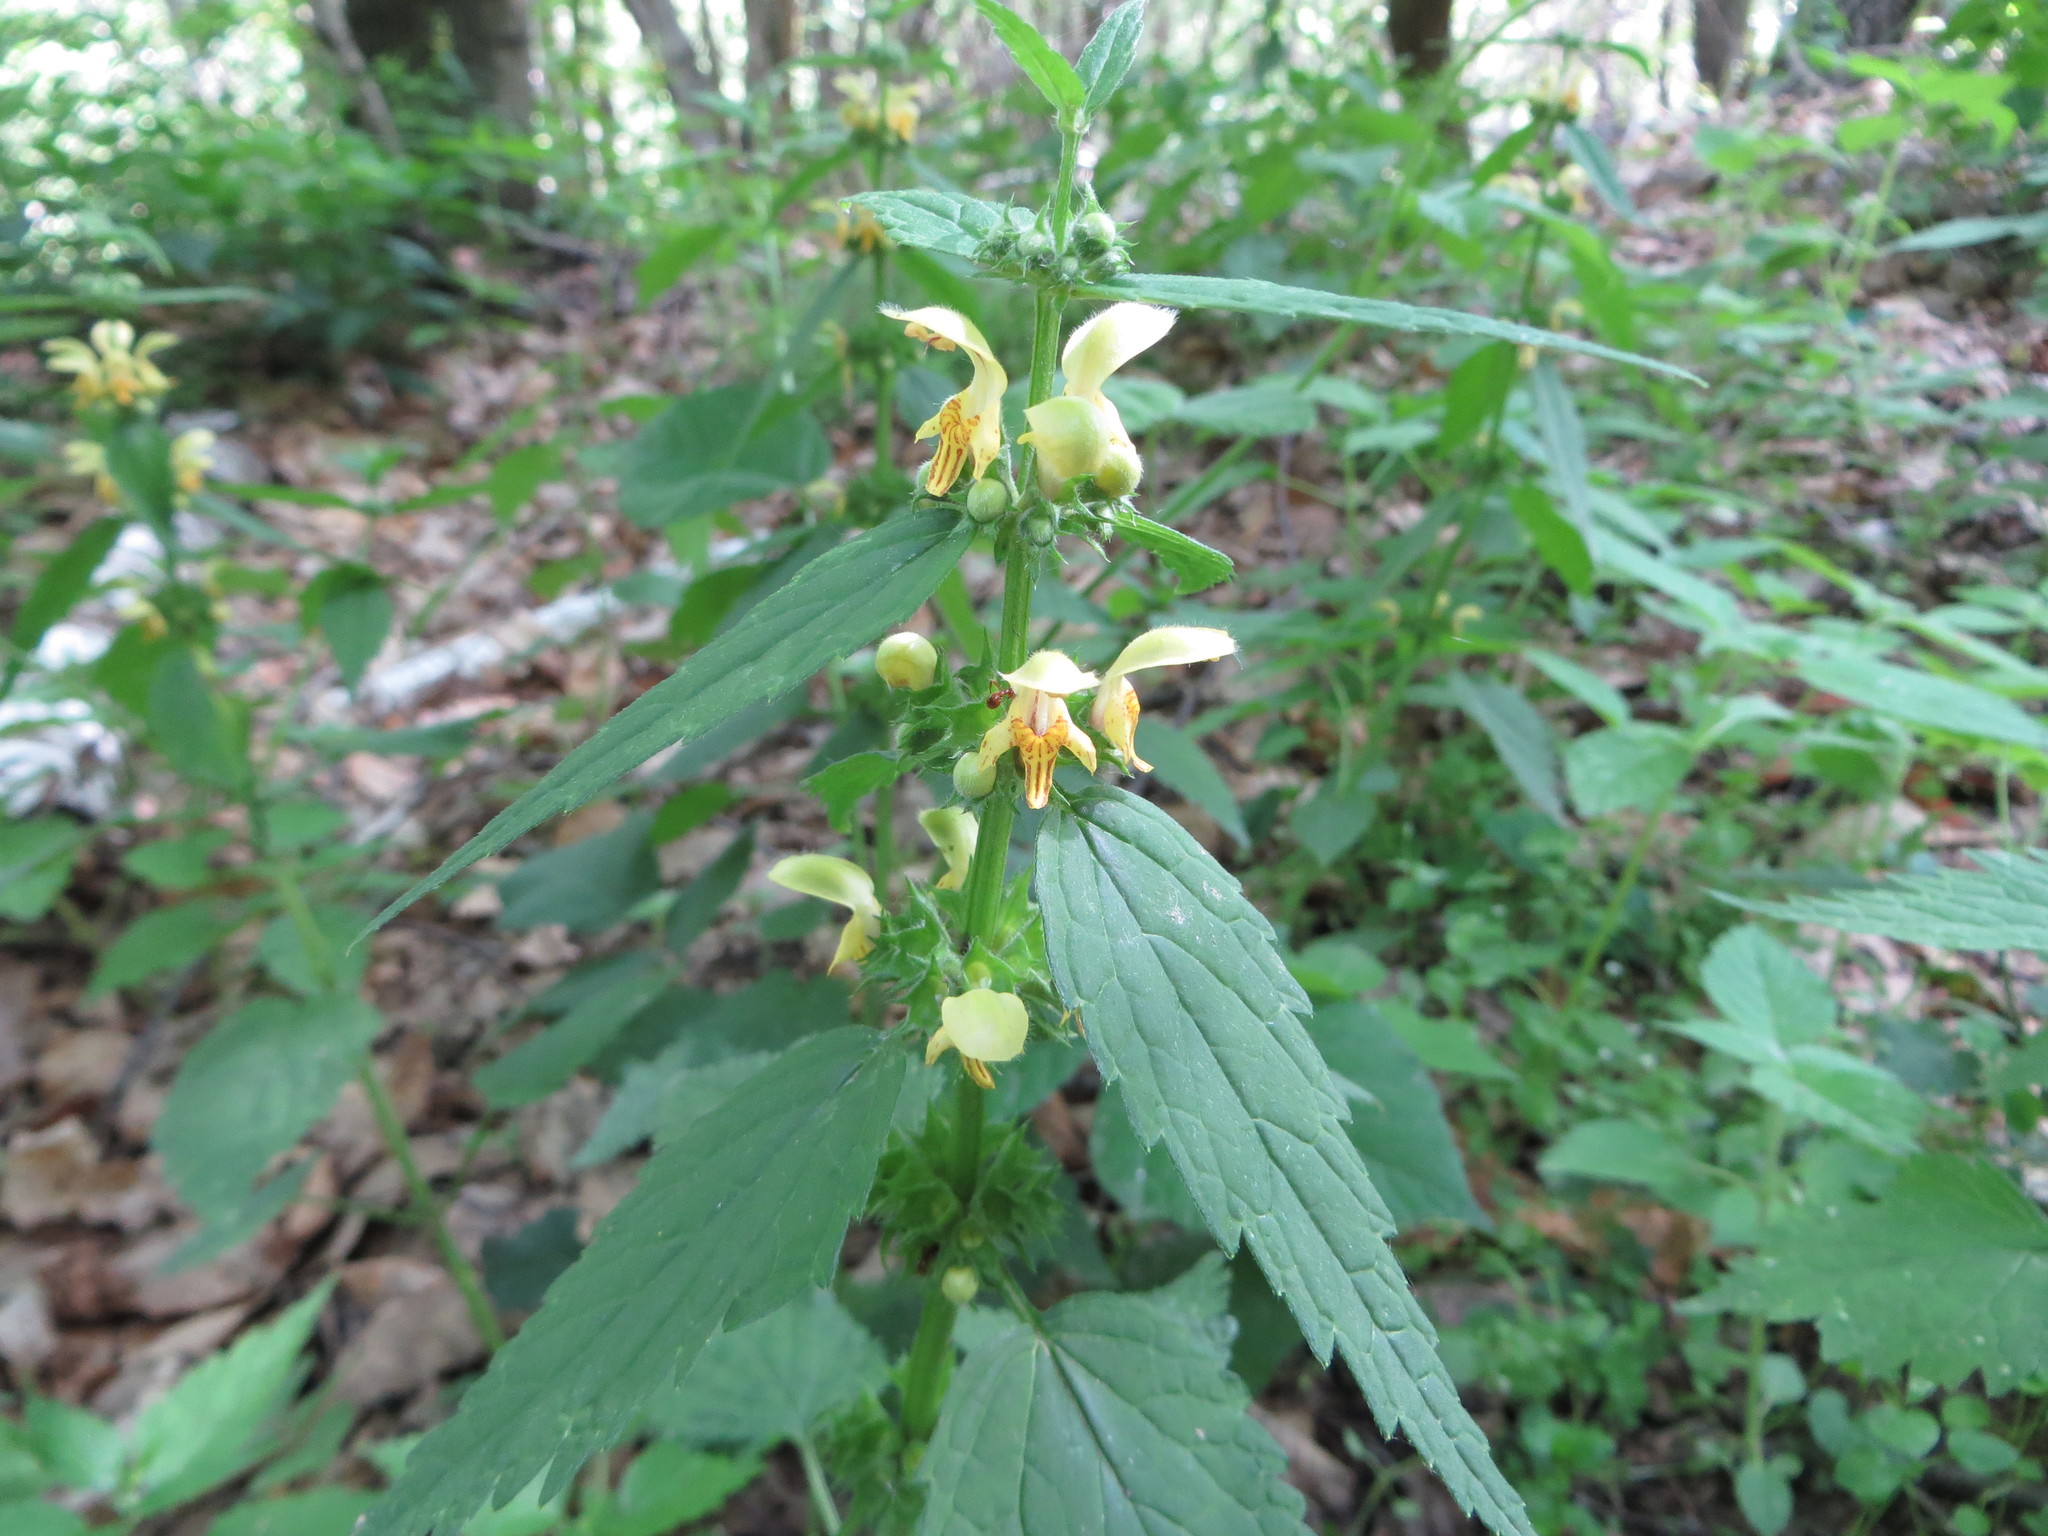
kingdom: Plantae
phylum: Tracheophyta
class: Magnoliopsida
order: Lamiales
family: Lamiaceae
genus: Lamium
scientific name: Lamium galeobdolon
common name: Yellow archangel
